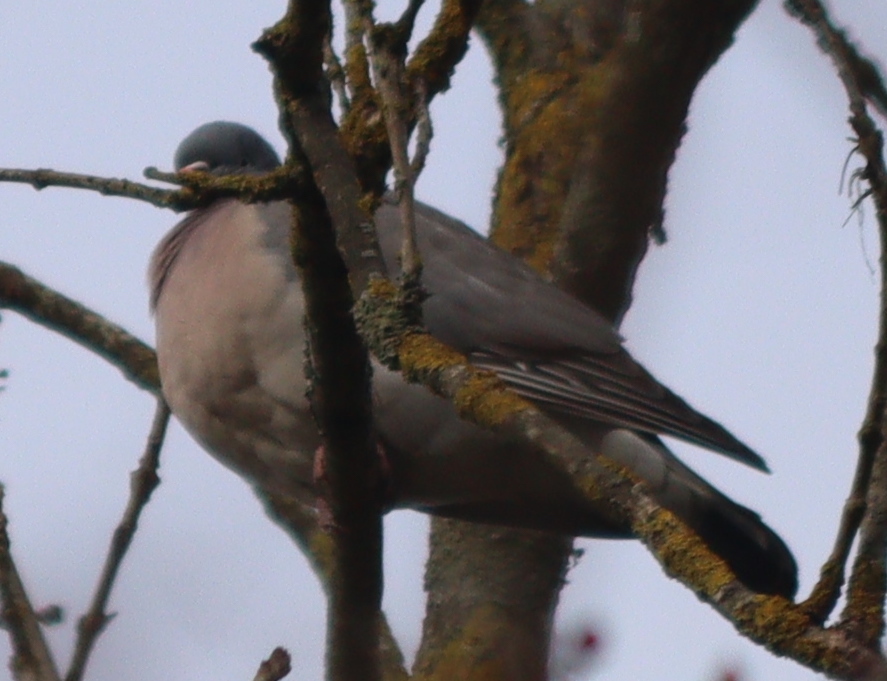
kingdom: Animalia
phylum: Chordata
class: Aves
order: Columbiformes
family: Columbidae
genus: Columba
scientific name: Columba palumbus
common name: Common wood pigeon
